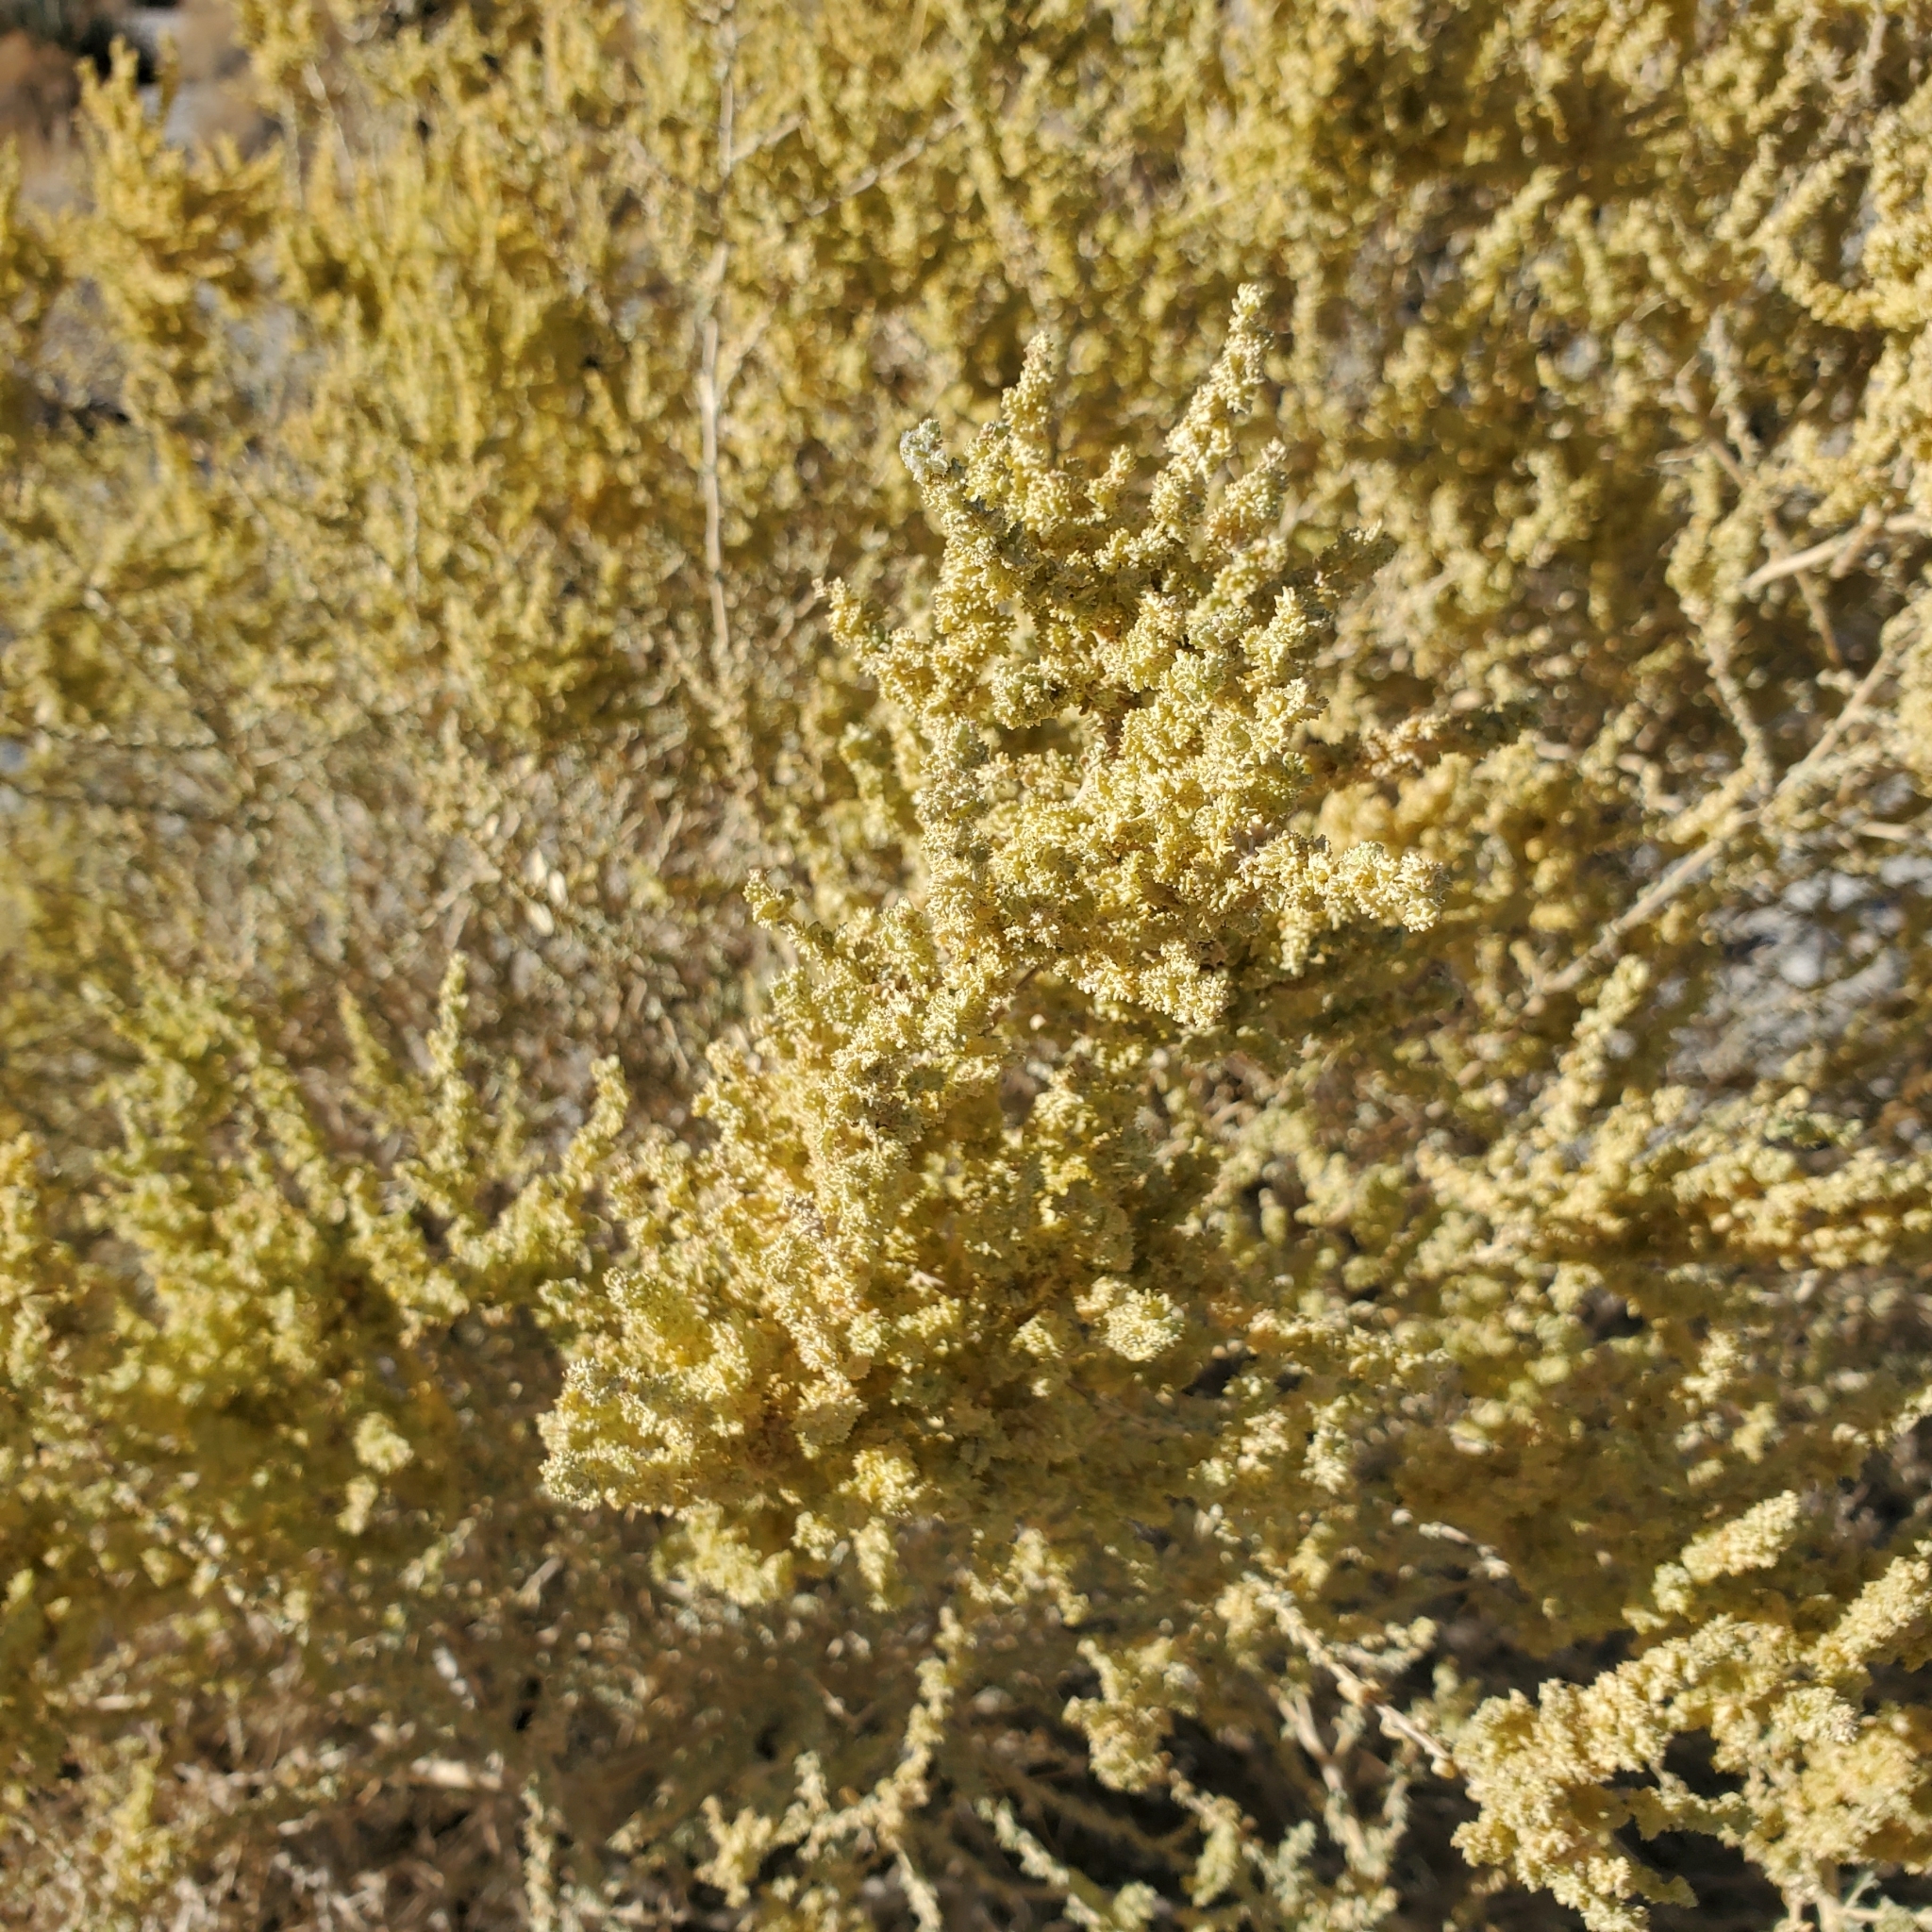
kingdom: Plantae
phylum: Tracheophyta
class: Magnoliopsida
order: Caryophyllales
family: Amaranthaceae
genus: Atriplex
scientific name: Atriplex polycarpa
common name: Desert saltbush
